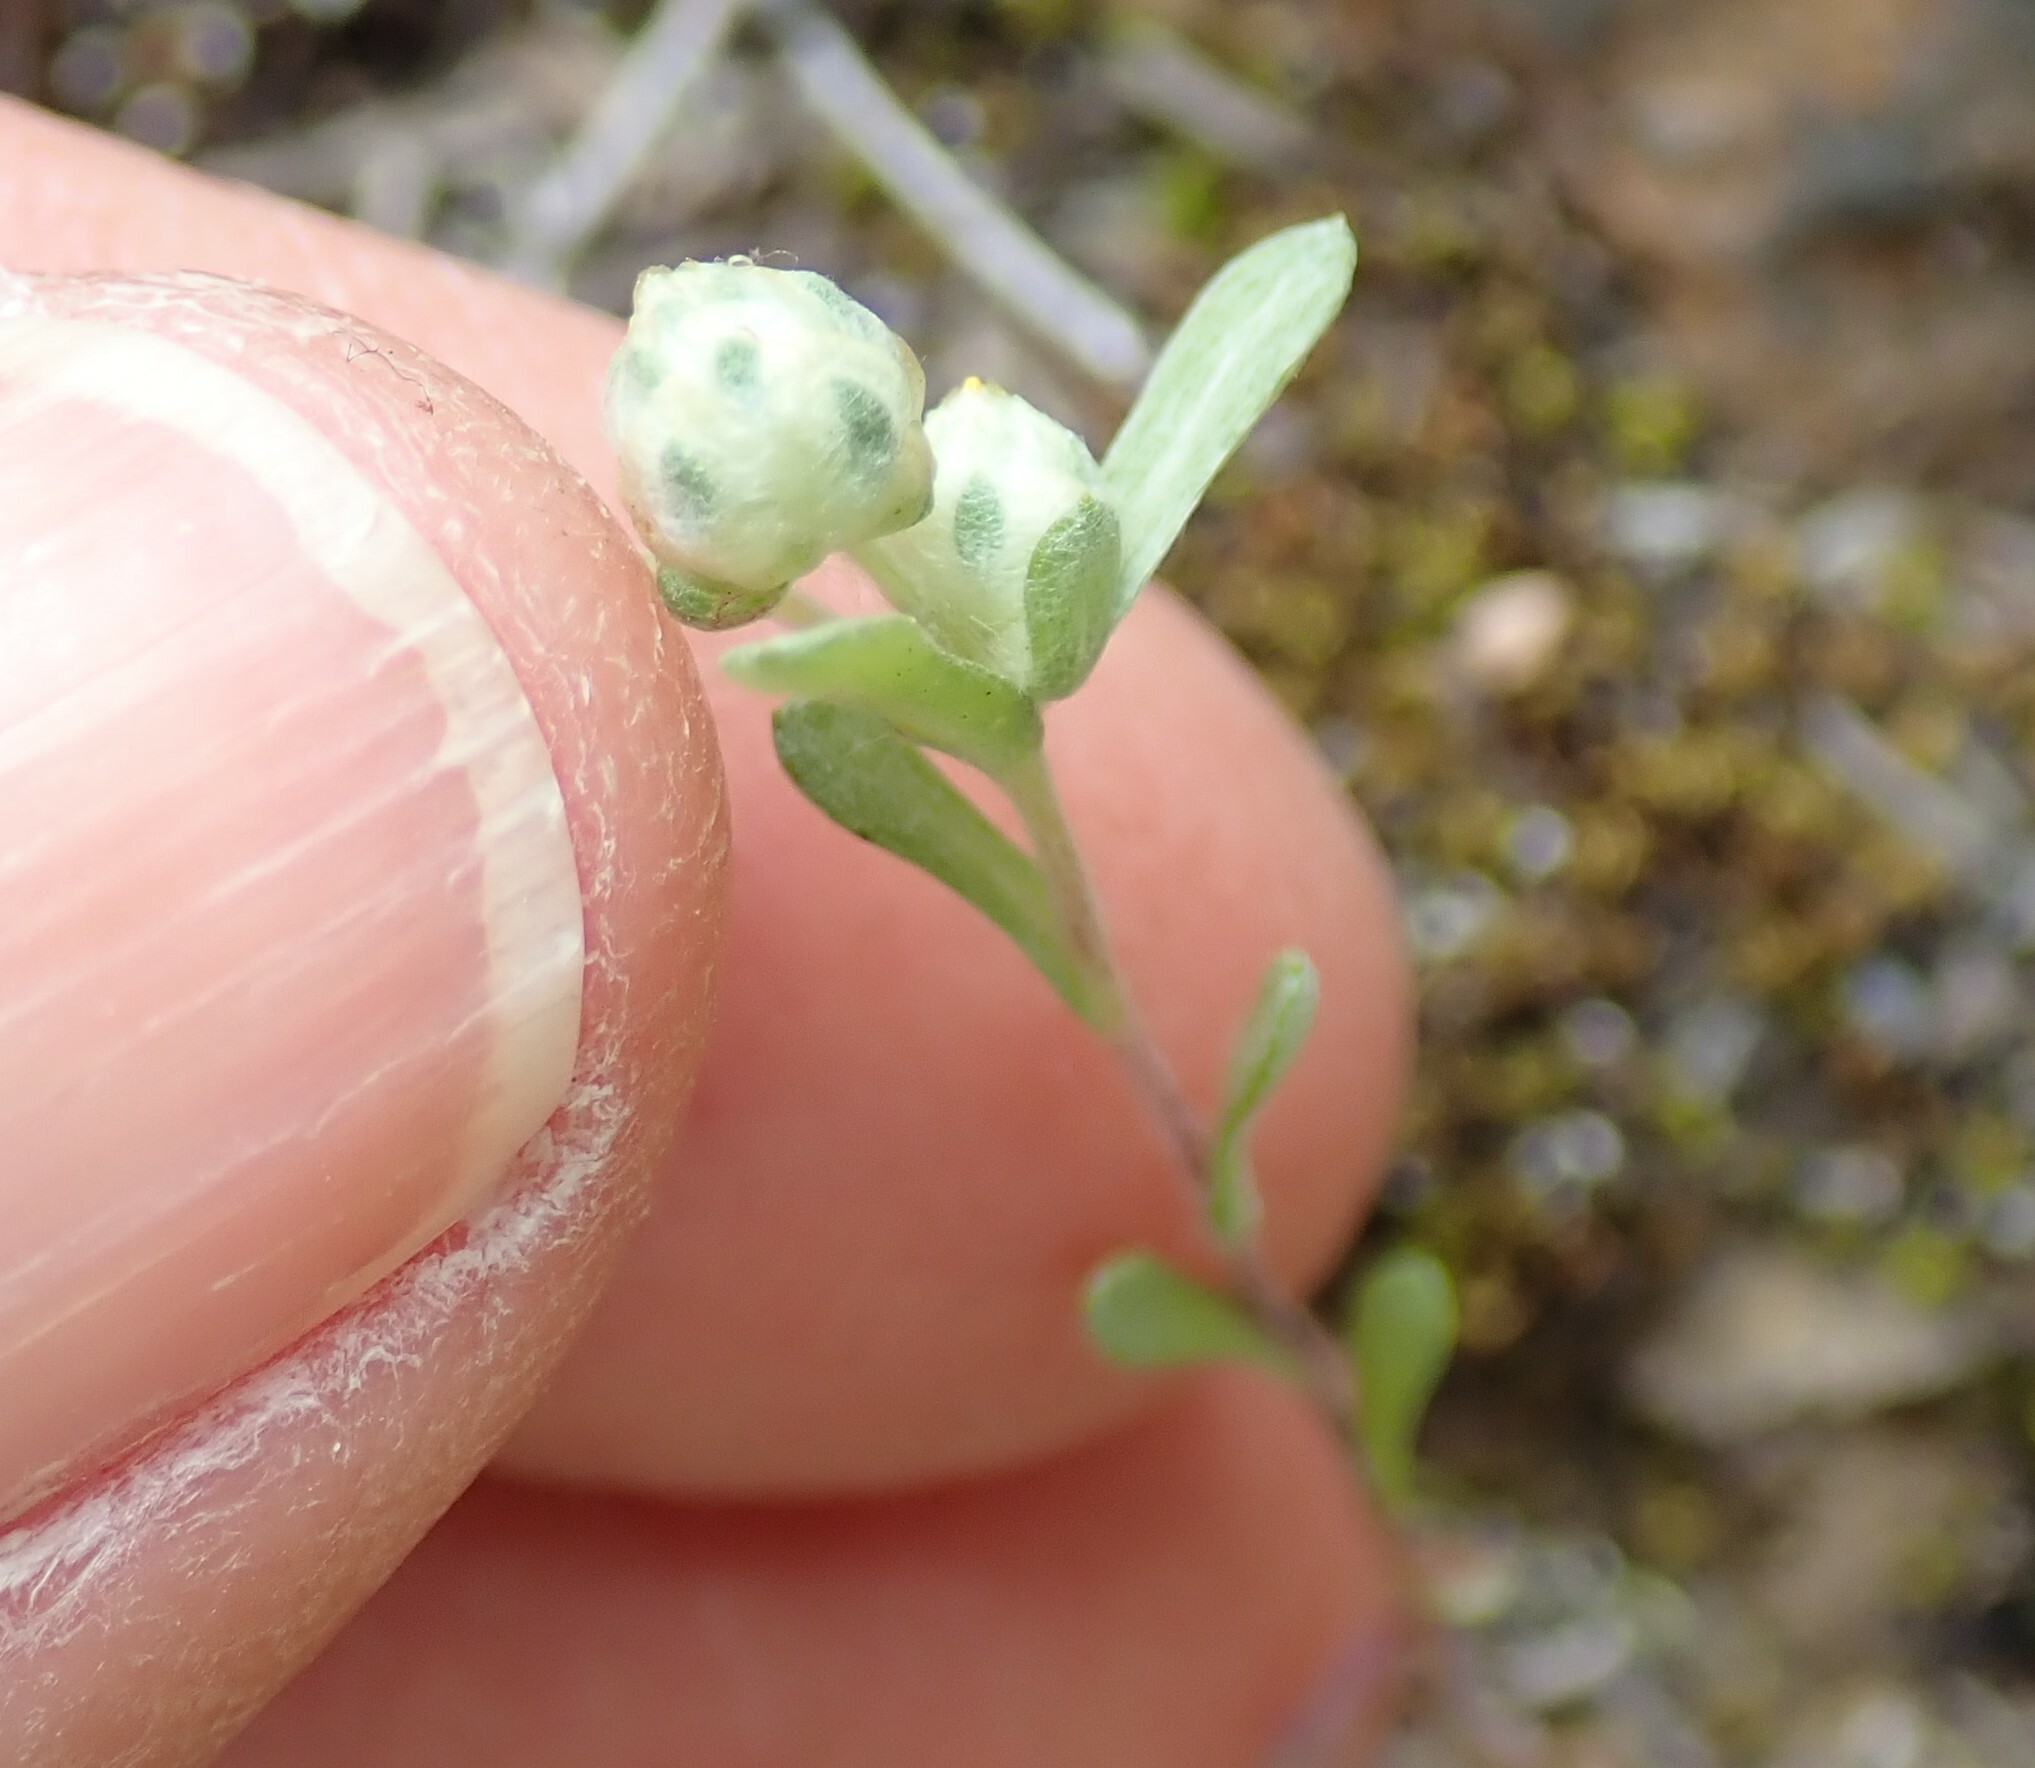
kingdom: Plantae
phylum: Tracheophyta
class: Magnoliopsida
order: Asterales
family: Asteraceae
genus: Stylocline
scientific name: Stylocline gnaphaloides
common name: Everlasting nest-straw
